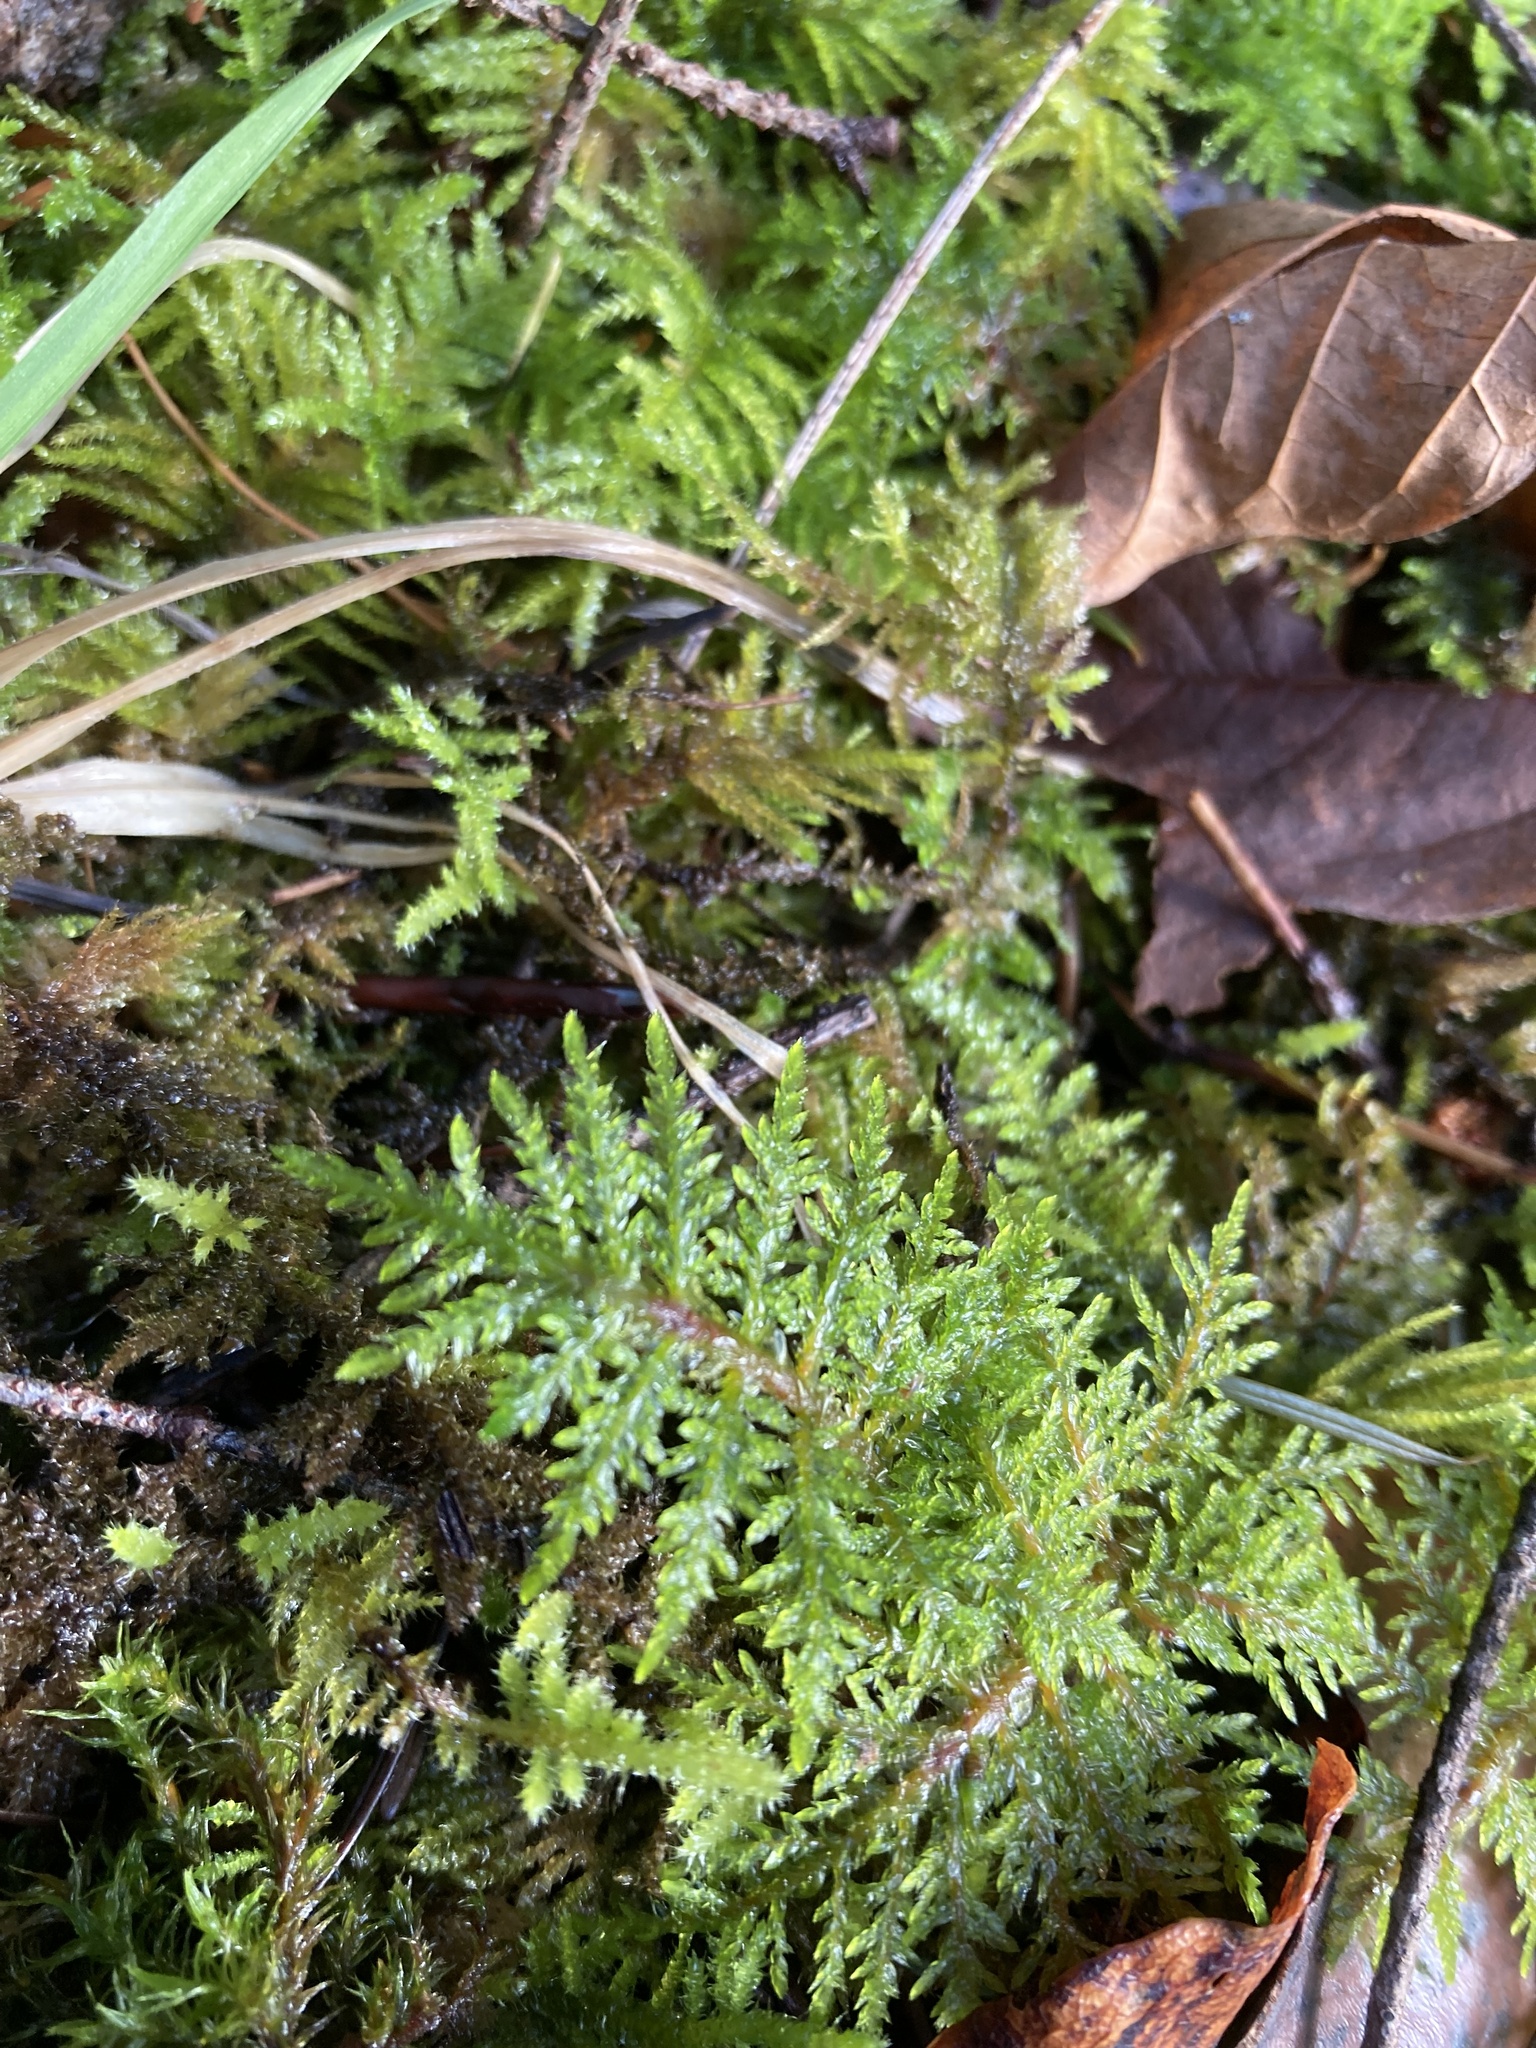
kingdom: Plantae
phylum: Bryophyta
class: Bryopsida
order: Hypnales
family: Hylocomiaceae
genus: Hylocomium
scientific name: Hylocomium splendens
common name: Stairstep moss
